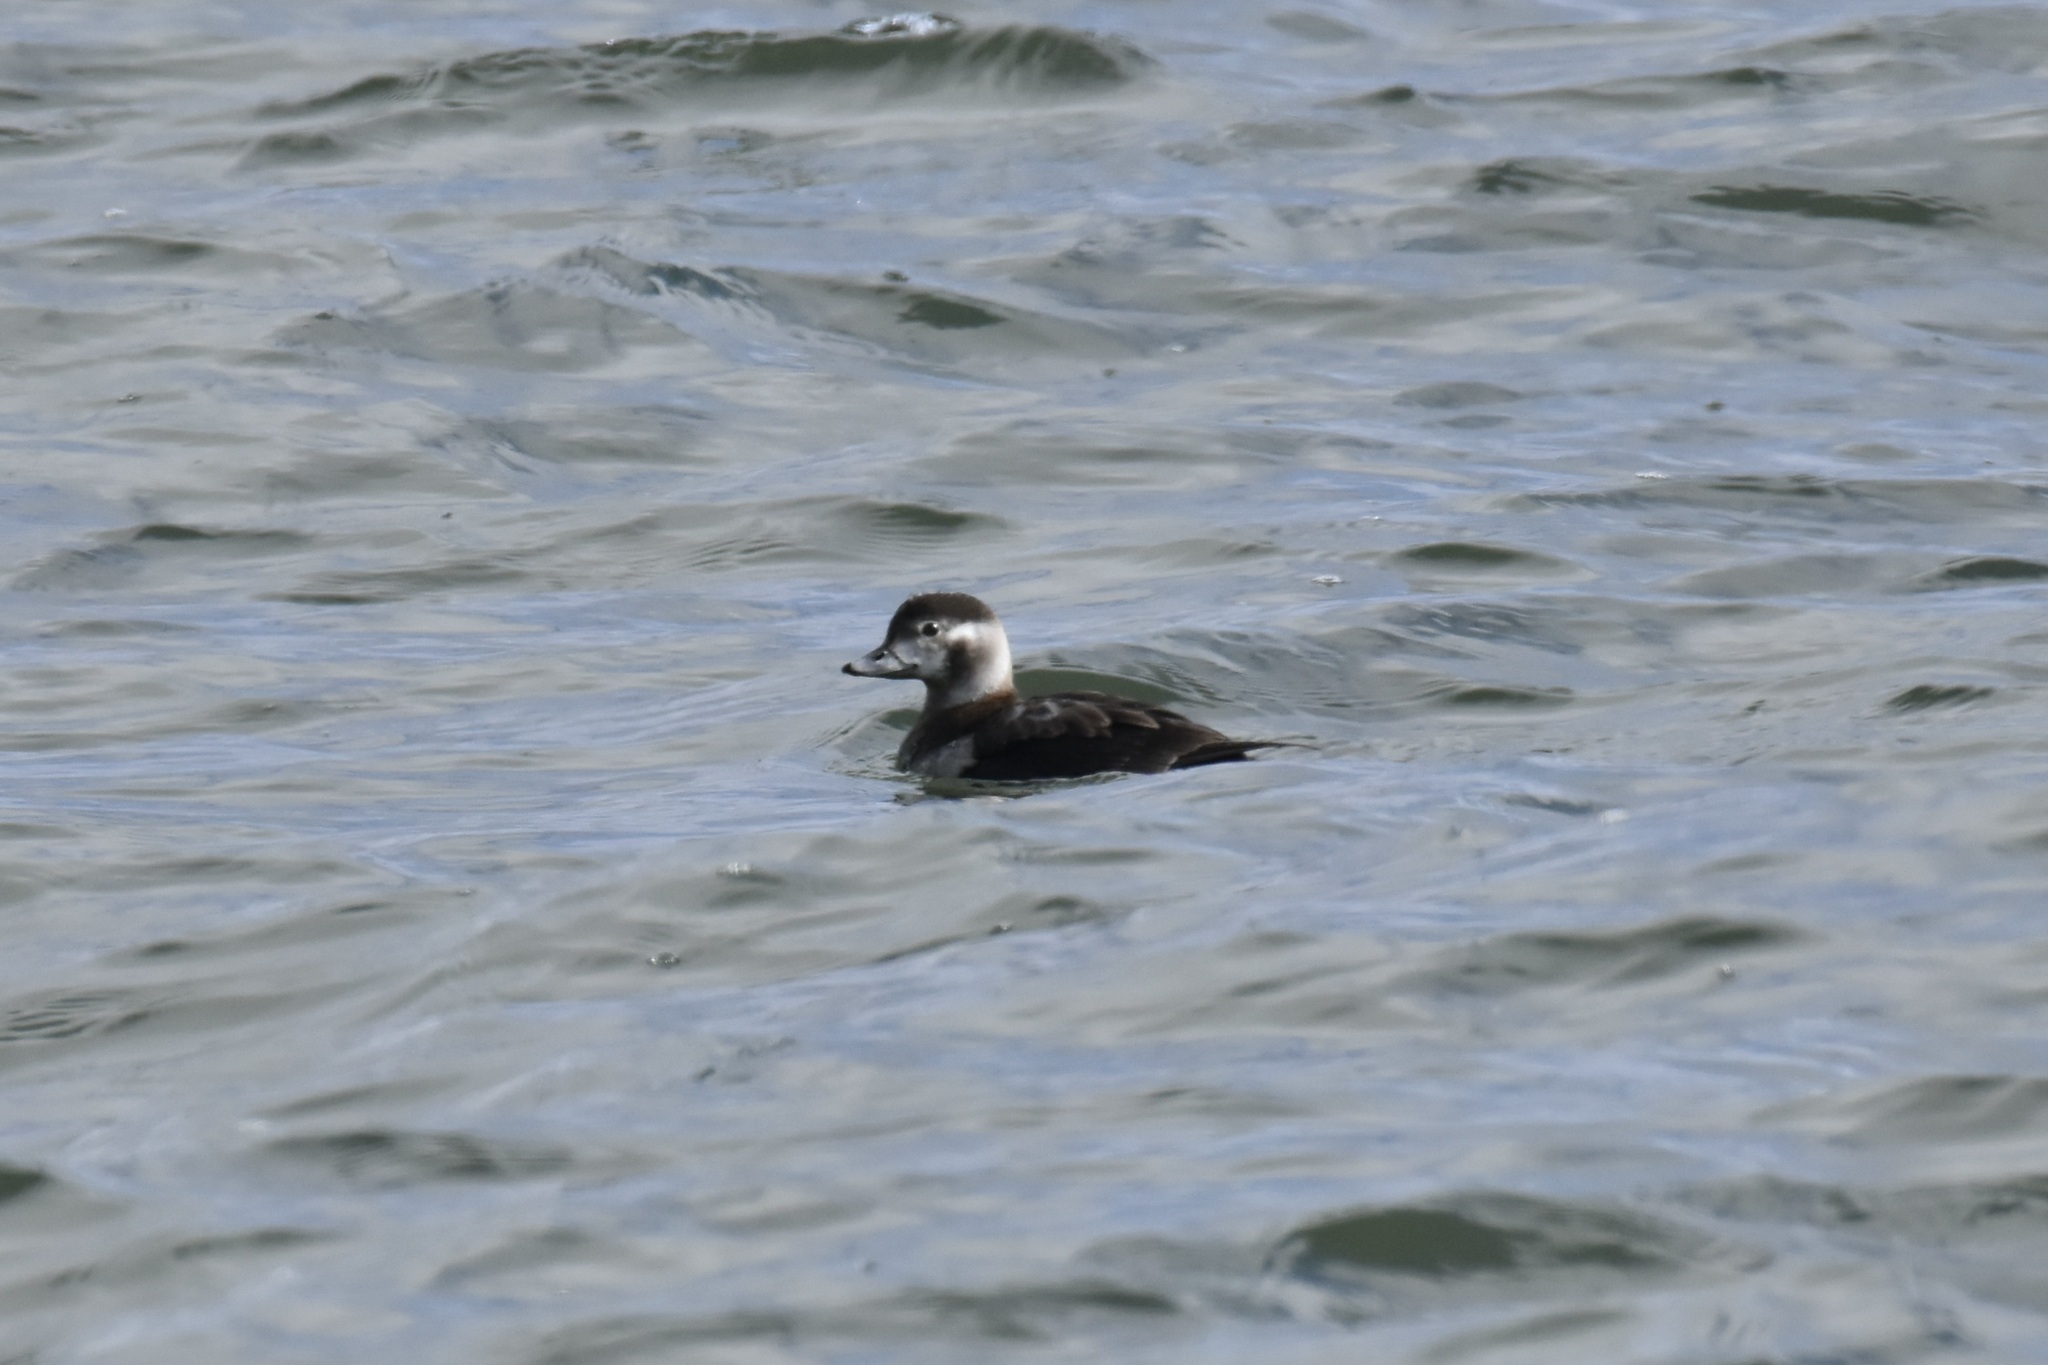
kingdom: Animalia
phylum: Chordata
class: Aves
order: Anseriformes
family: Anatidae
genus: Clangula
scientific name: Clangula hyemalis
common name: Long-tailed duck
